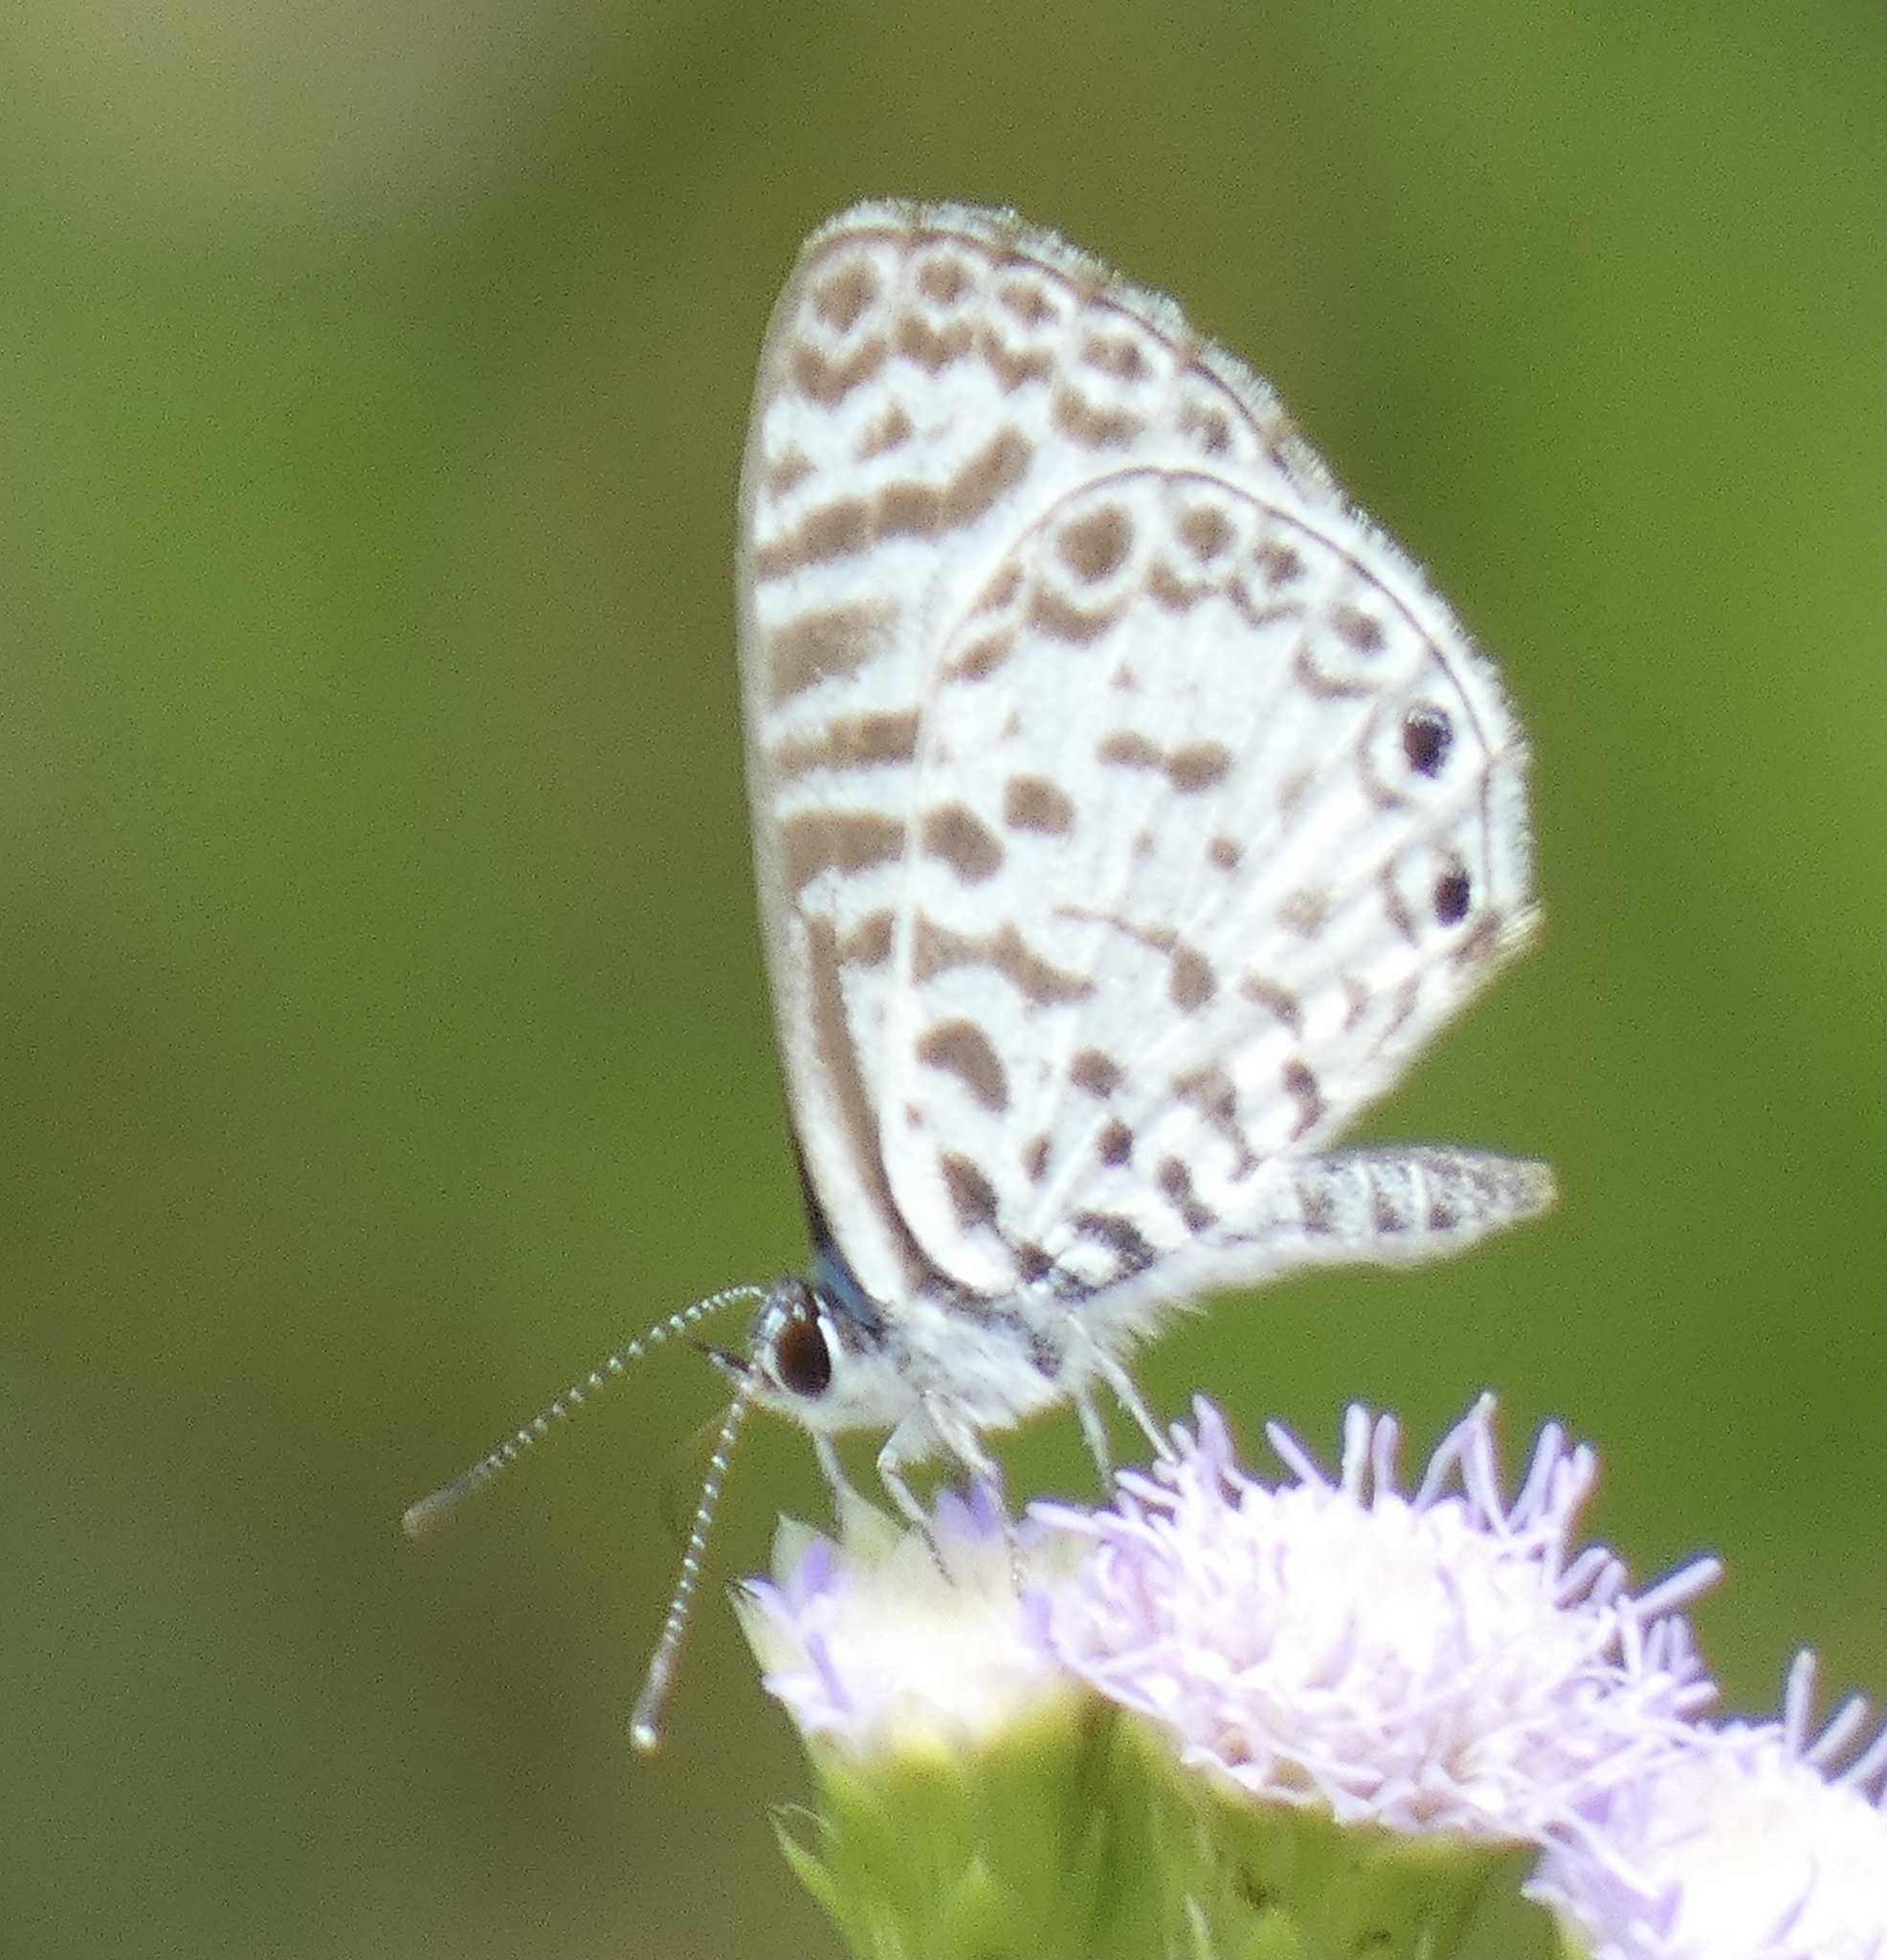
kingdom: Animalia
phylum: Arthropoda
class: Insecta
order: Lepidoptera
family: Lycaenidae
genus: Leptotes
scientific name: Leptotes cassius
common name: Cassius blue
